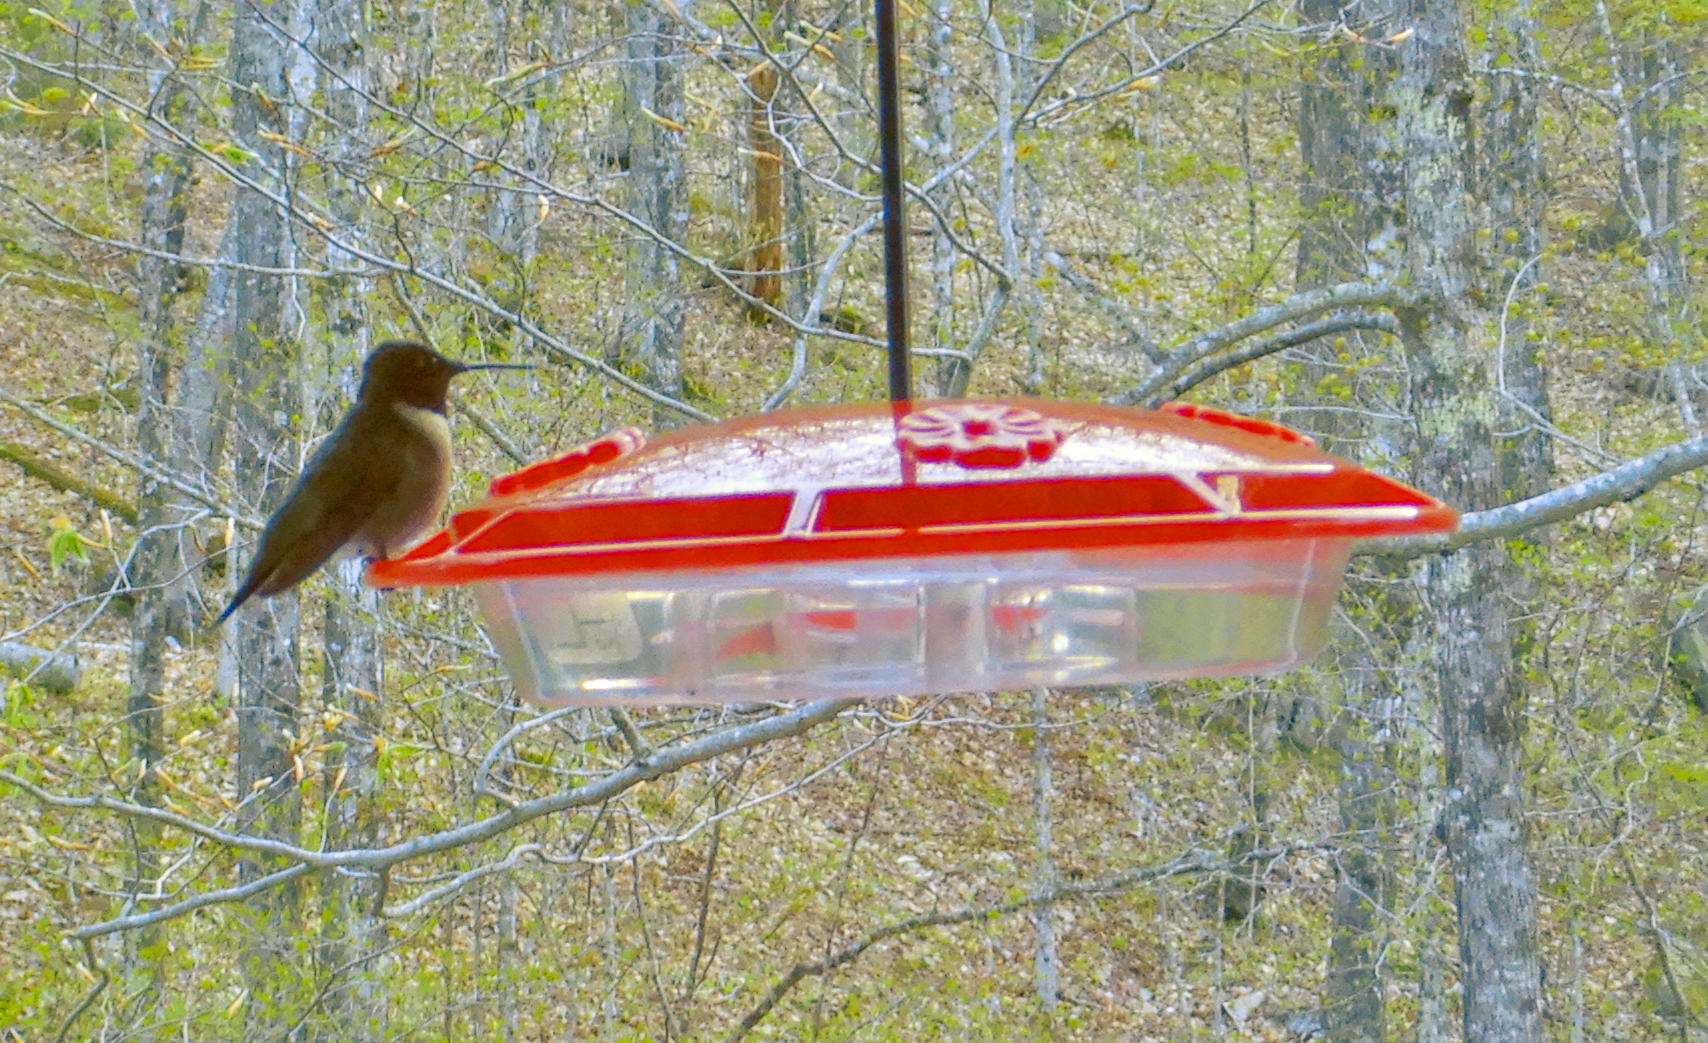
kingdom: Animalia
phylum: Chordata
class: Aves
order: Apodiformes
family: Trochilidae
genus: Archilochus
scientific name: Archilochus colubris
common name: Ruby-throated hummingbird
